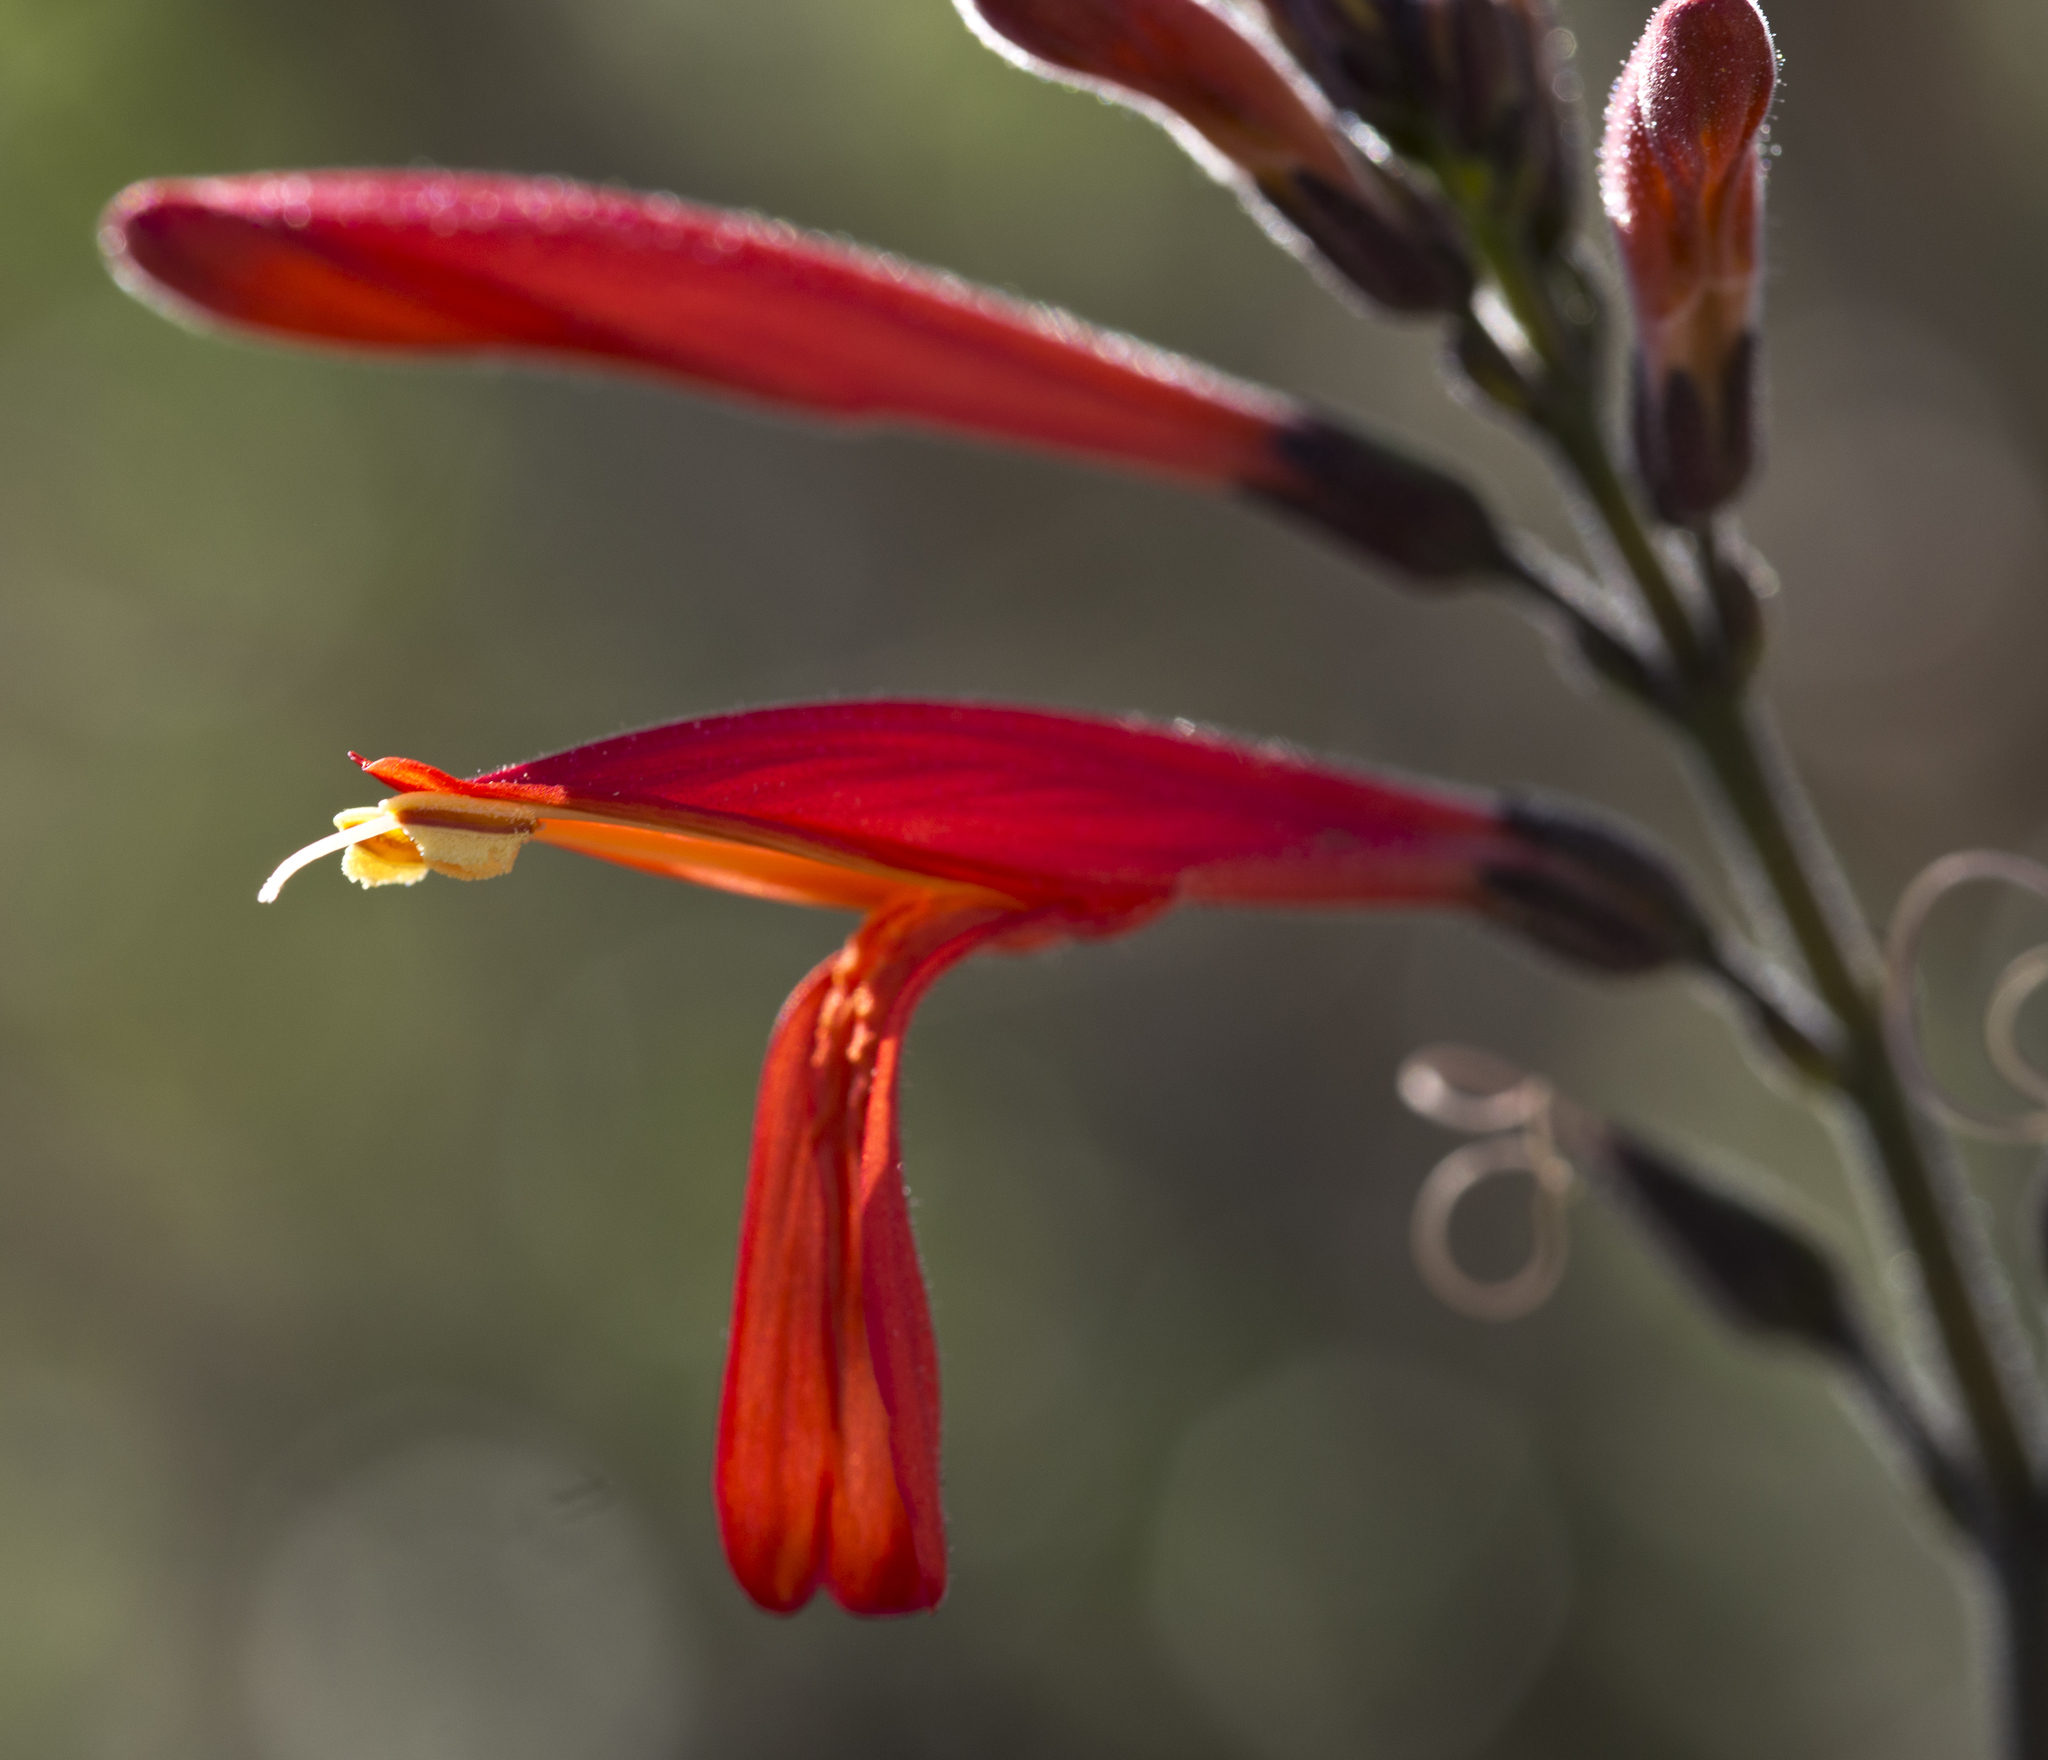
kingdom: Plantae
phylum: Tracheophyta
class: Magnoliopsida
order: Lamiales
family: Acanthaceae
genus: Justicia
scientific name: Justicia californica
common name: Chuparosa-honeysuckle
